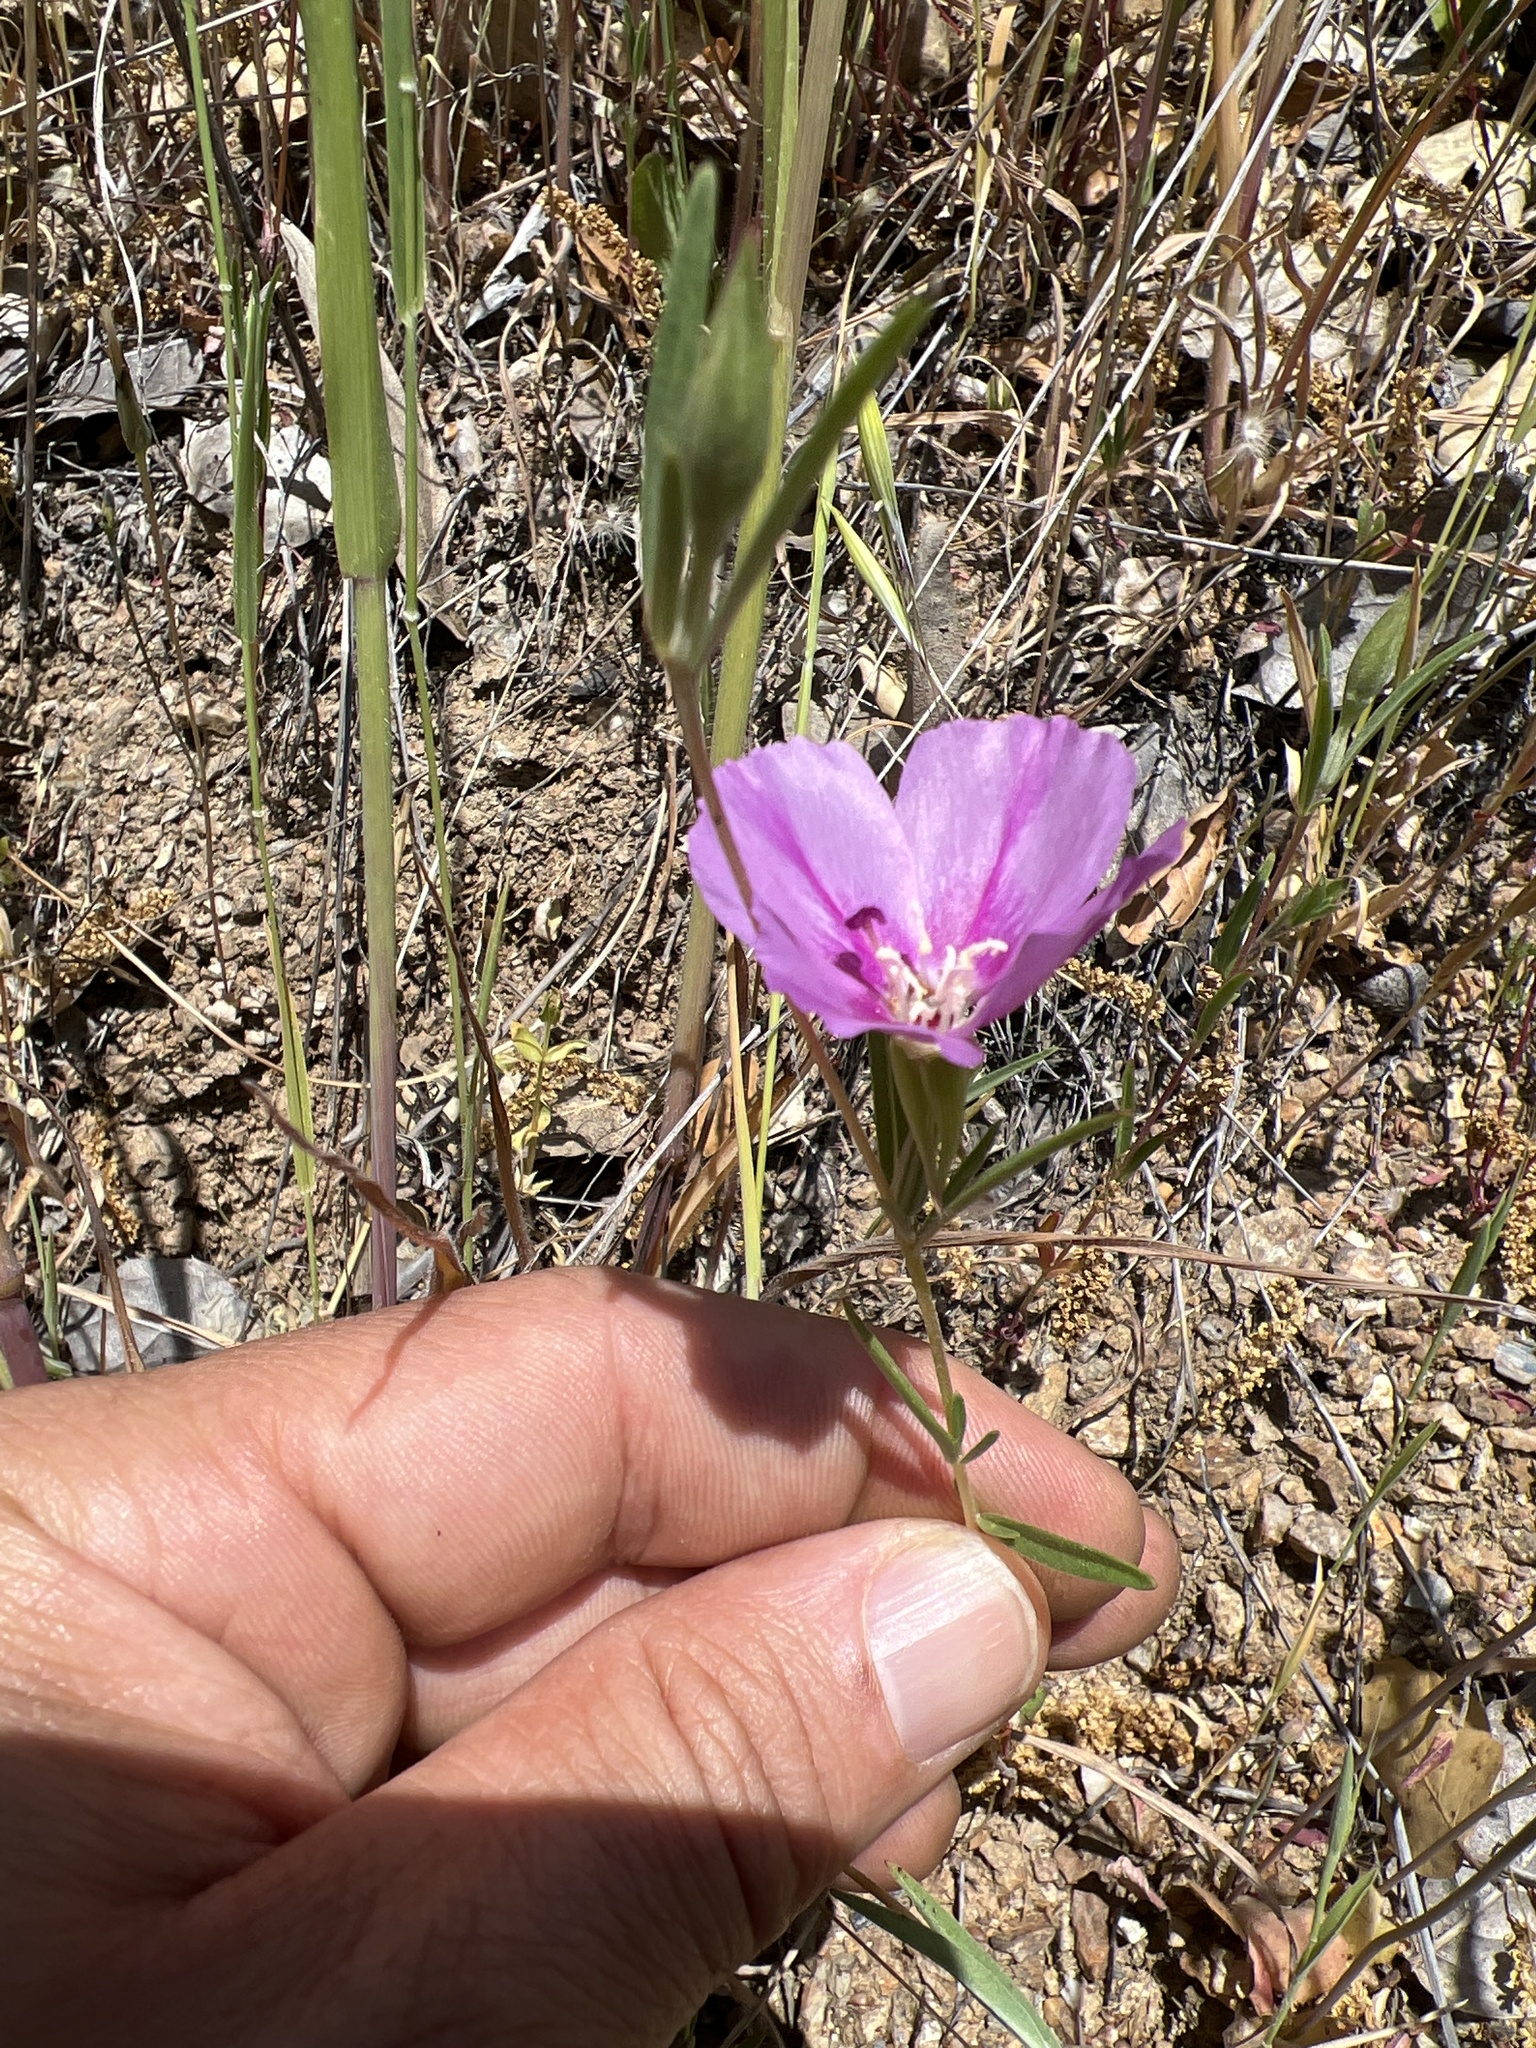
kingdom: Plantae
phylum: Tracheophyta
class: Magnoliopsida
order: Myrtales
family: Onagraceae
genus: Clarkia
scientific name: Clarkia purpurea
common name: Purple clarkia
